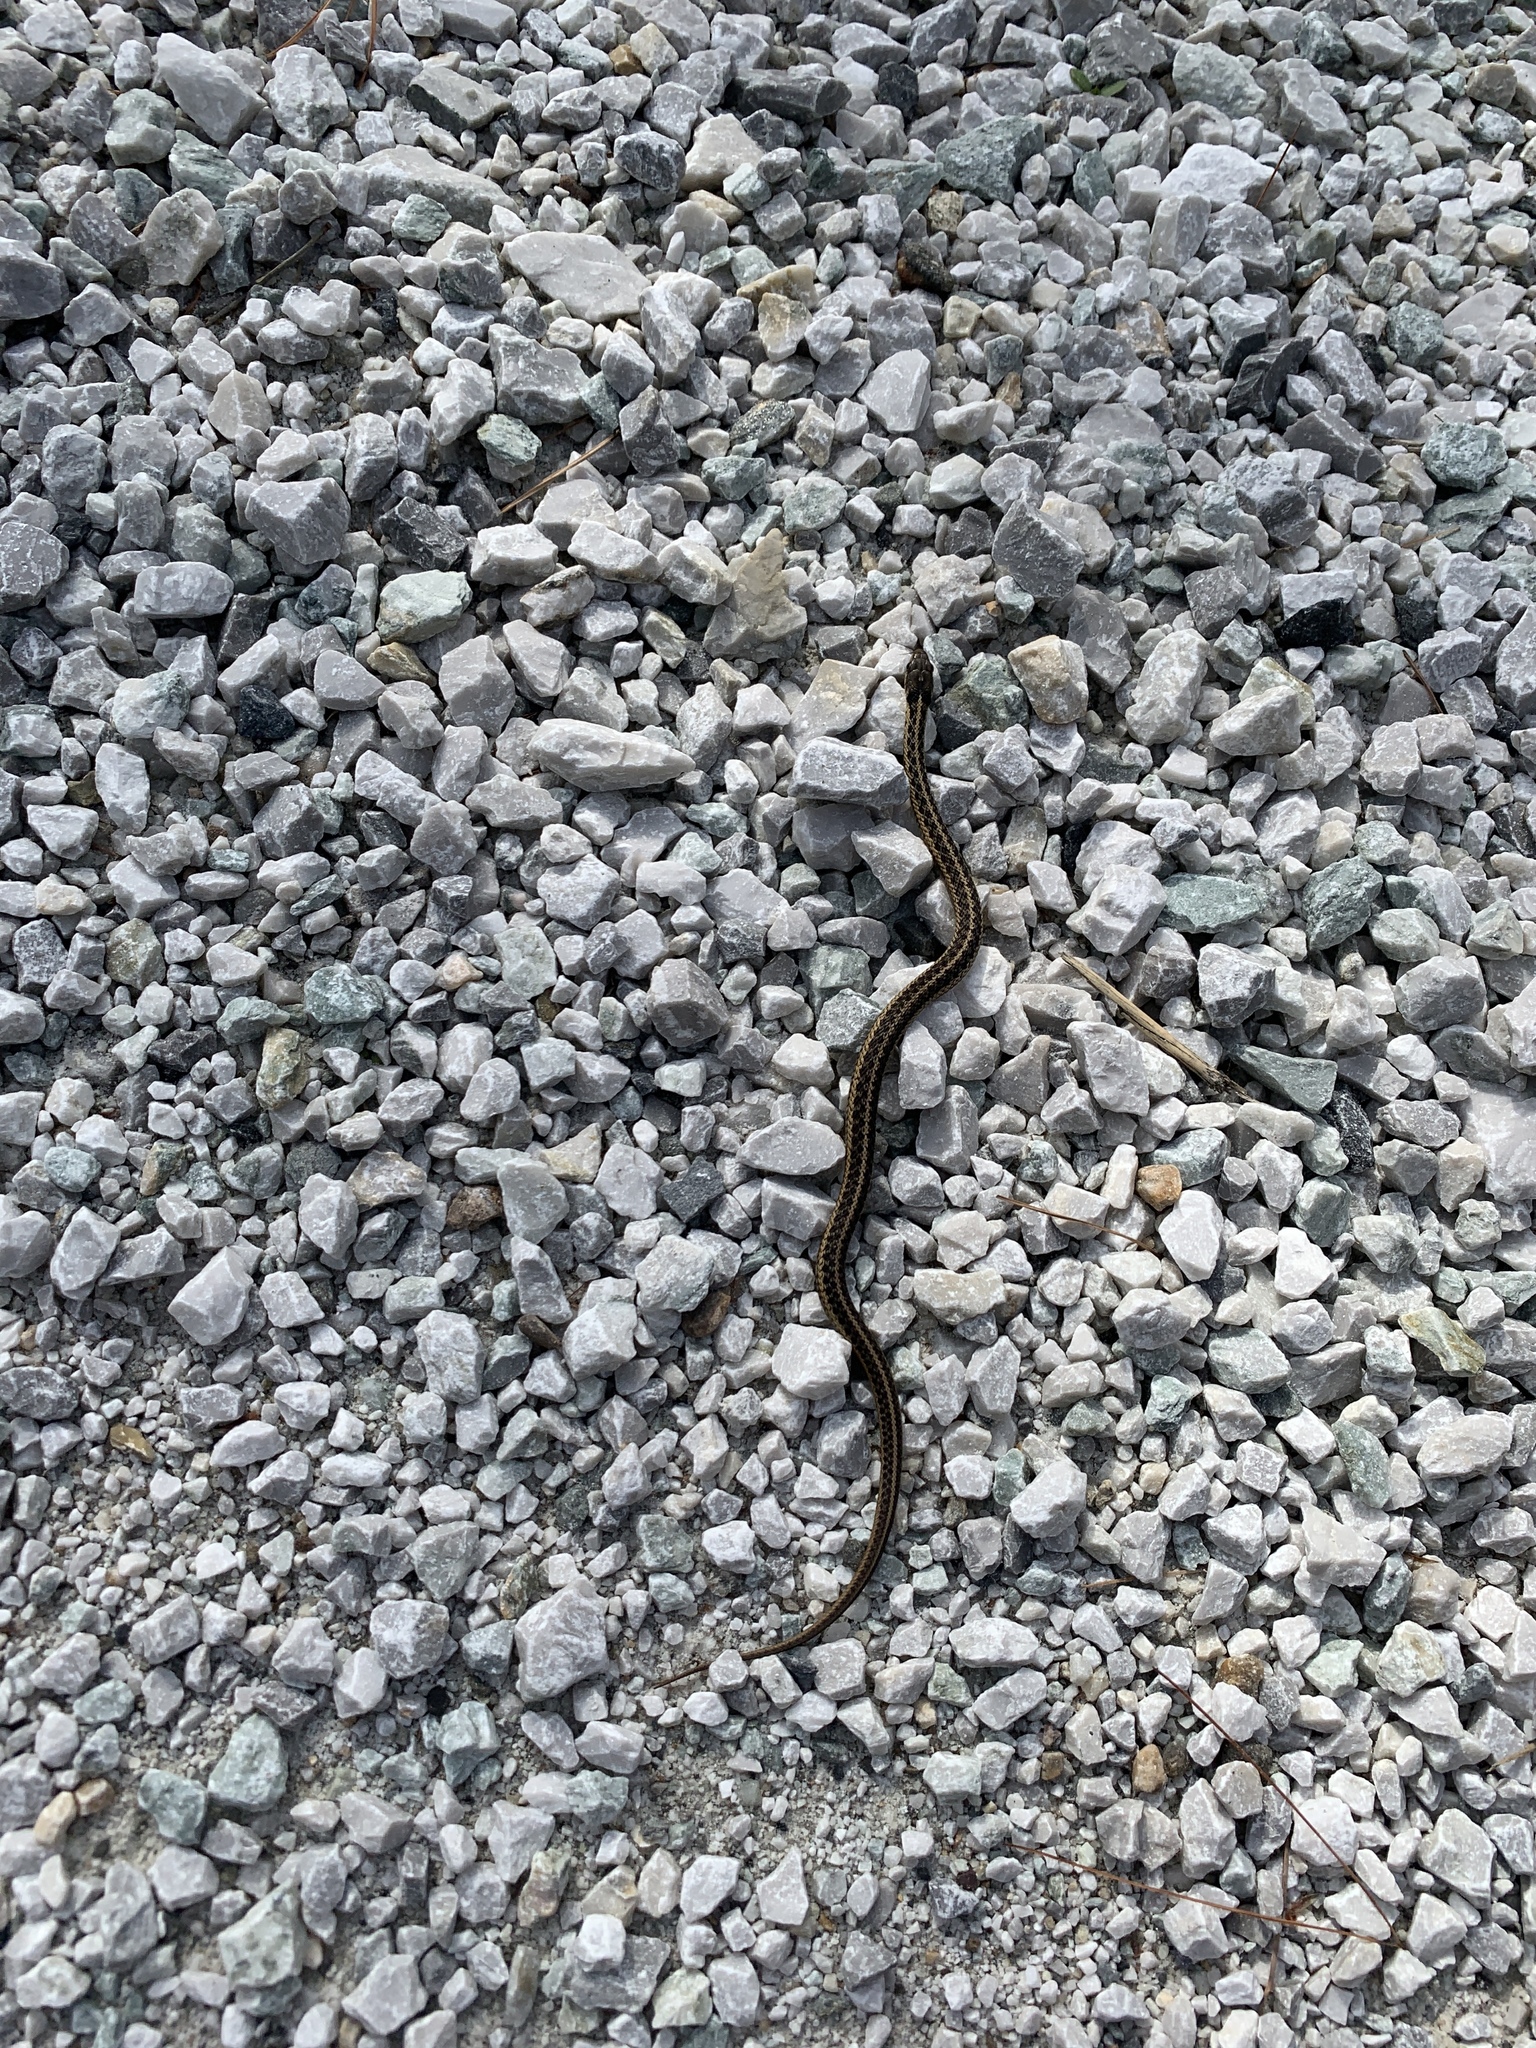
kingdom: Animalia
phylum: Chordata
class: Squamata
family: Colubridae
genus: Thamnophis
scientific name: Thamnophis sirtalis
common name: Common garter snake
